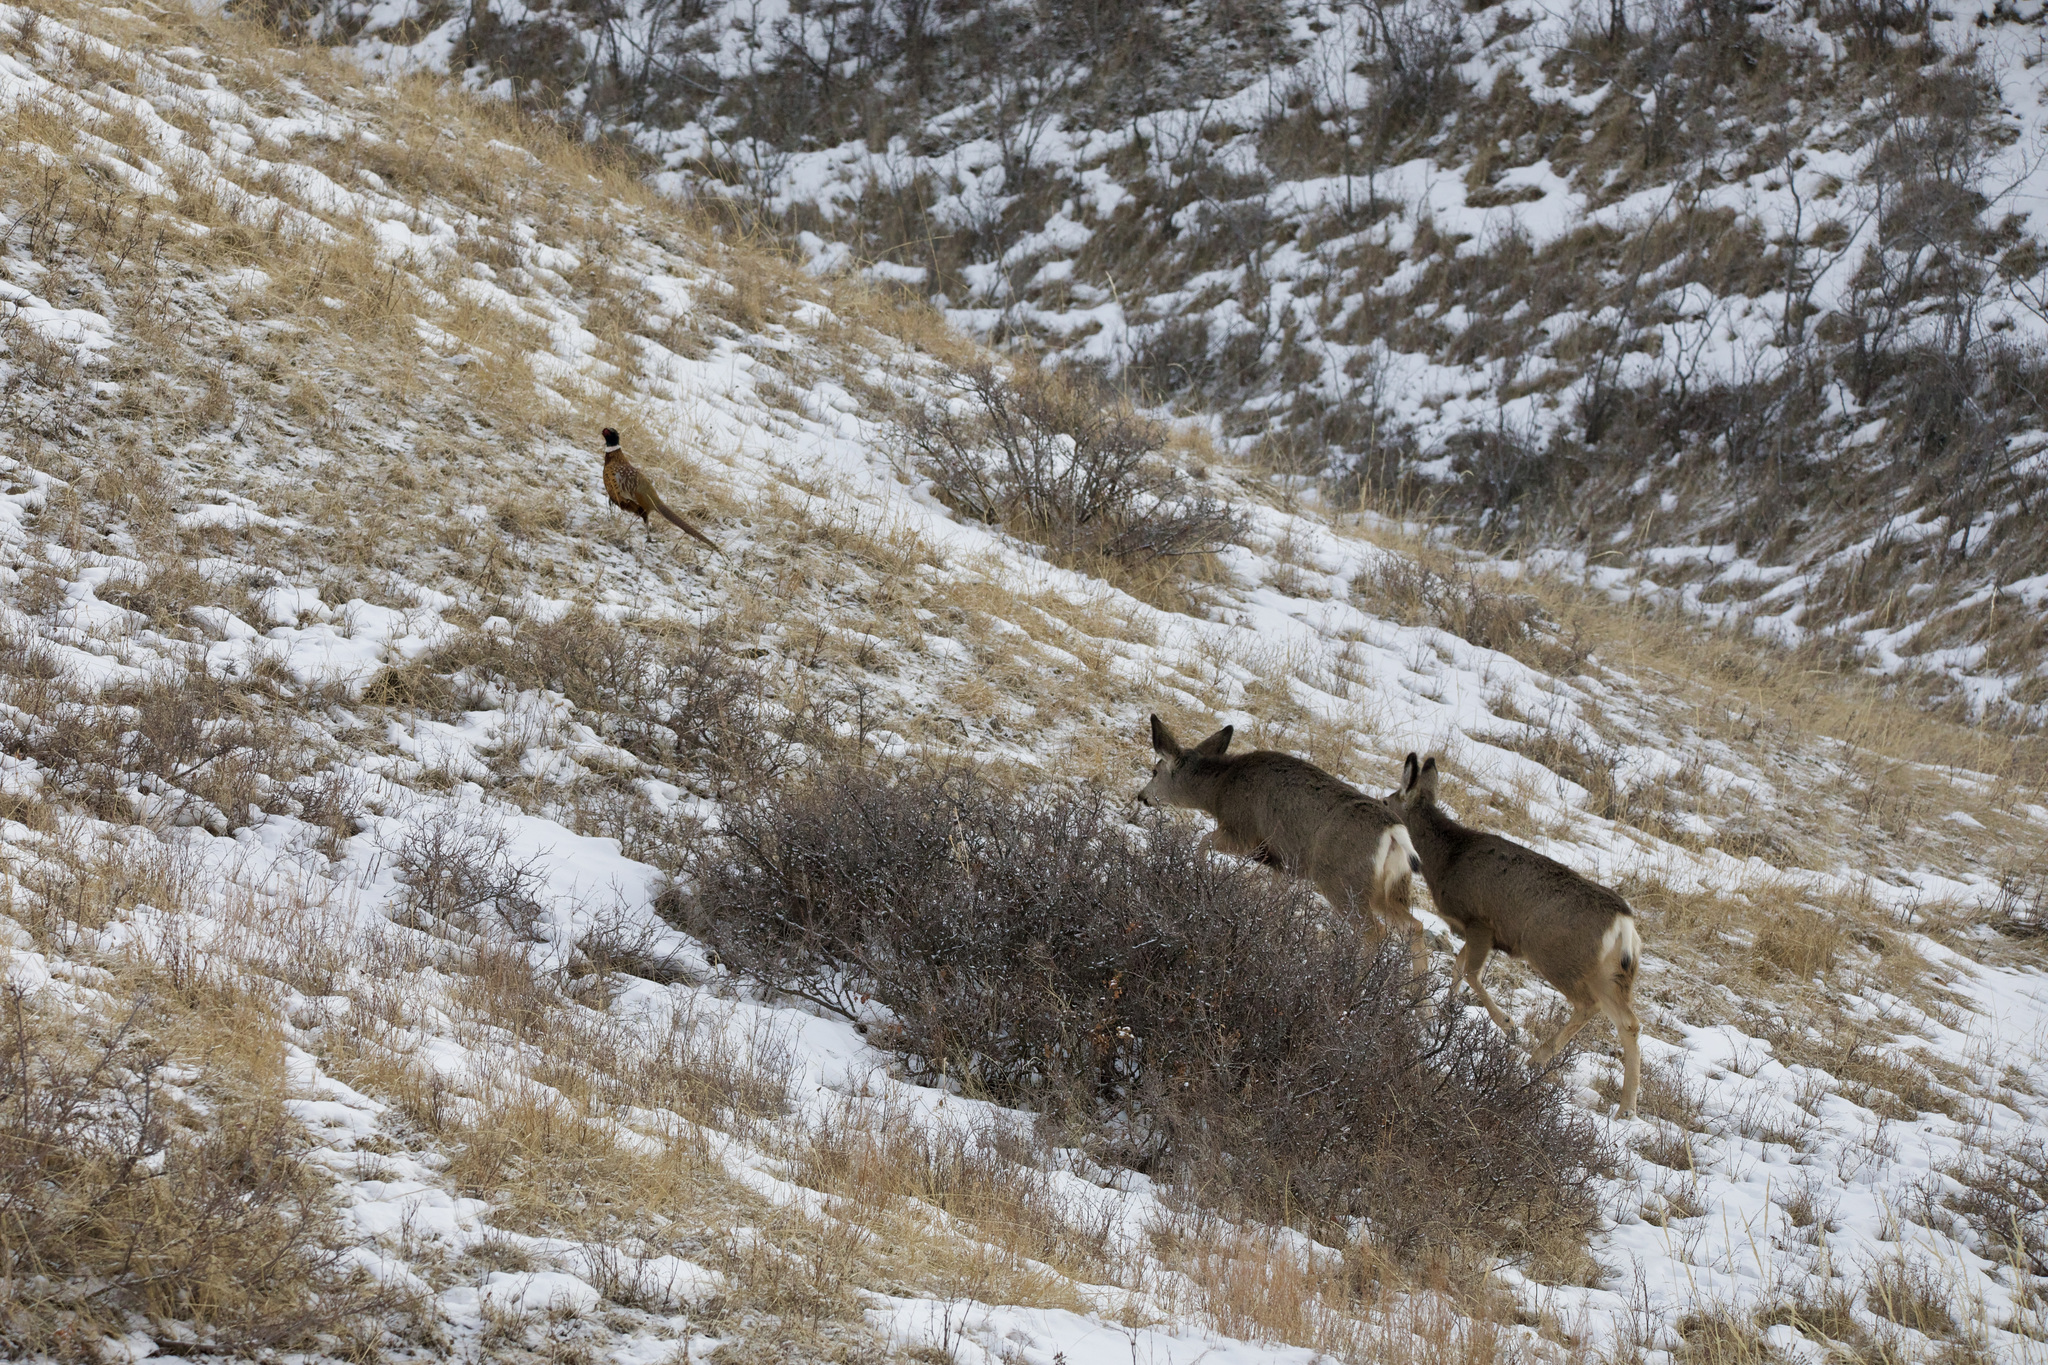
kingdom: Animalia
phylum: Chordata
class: Mammalia
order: Artiodactyla
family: Cervidae
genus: Odocoileus
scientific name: Odocoileus hemionus
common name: Mule deer
